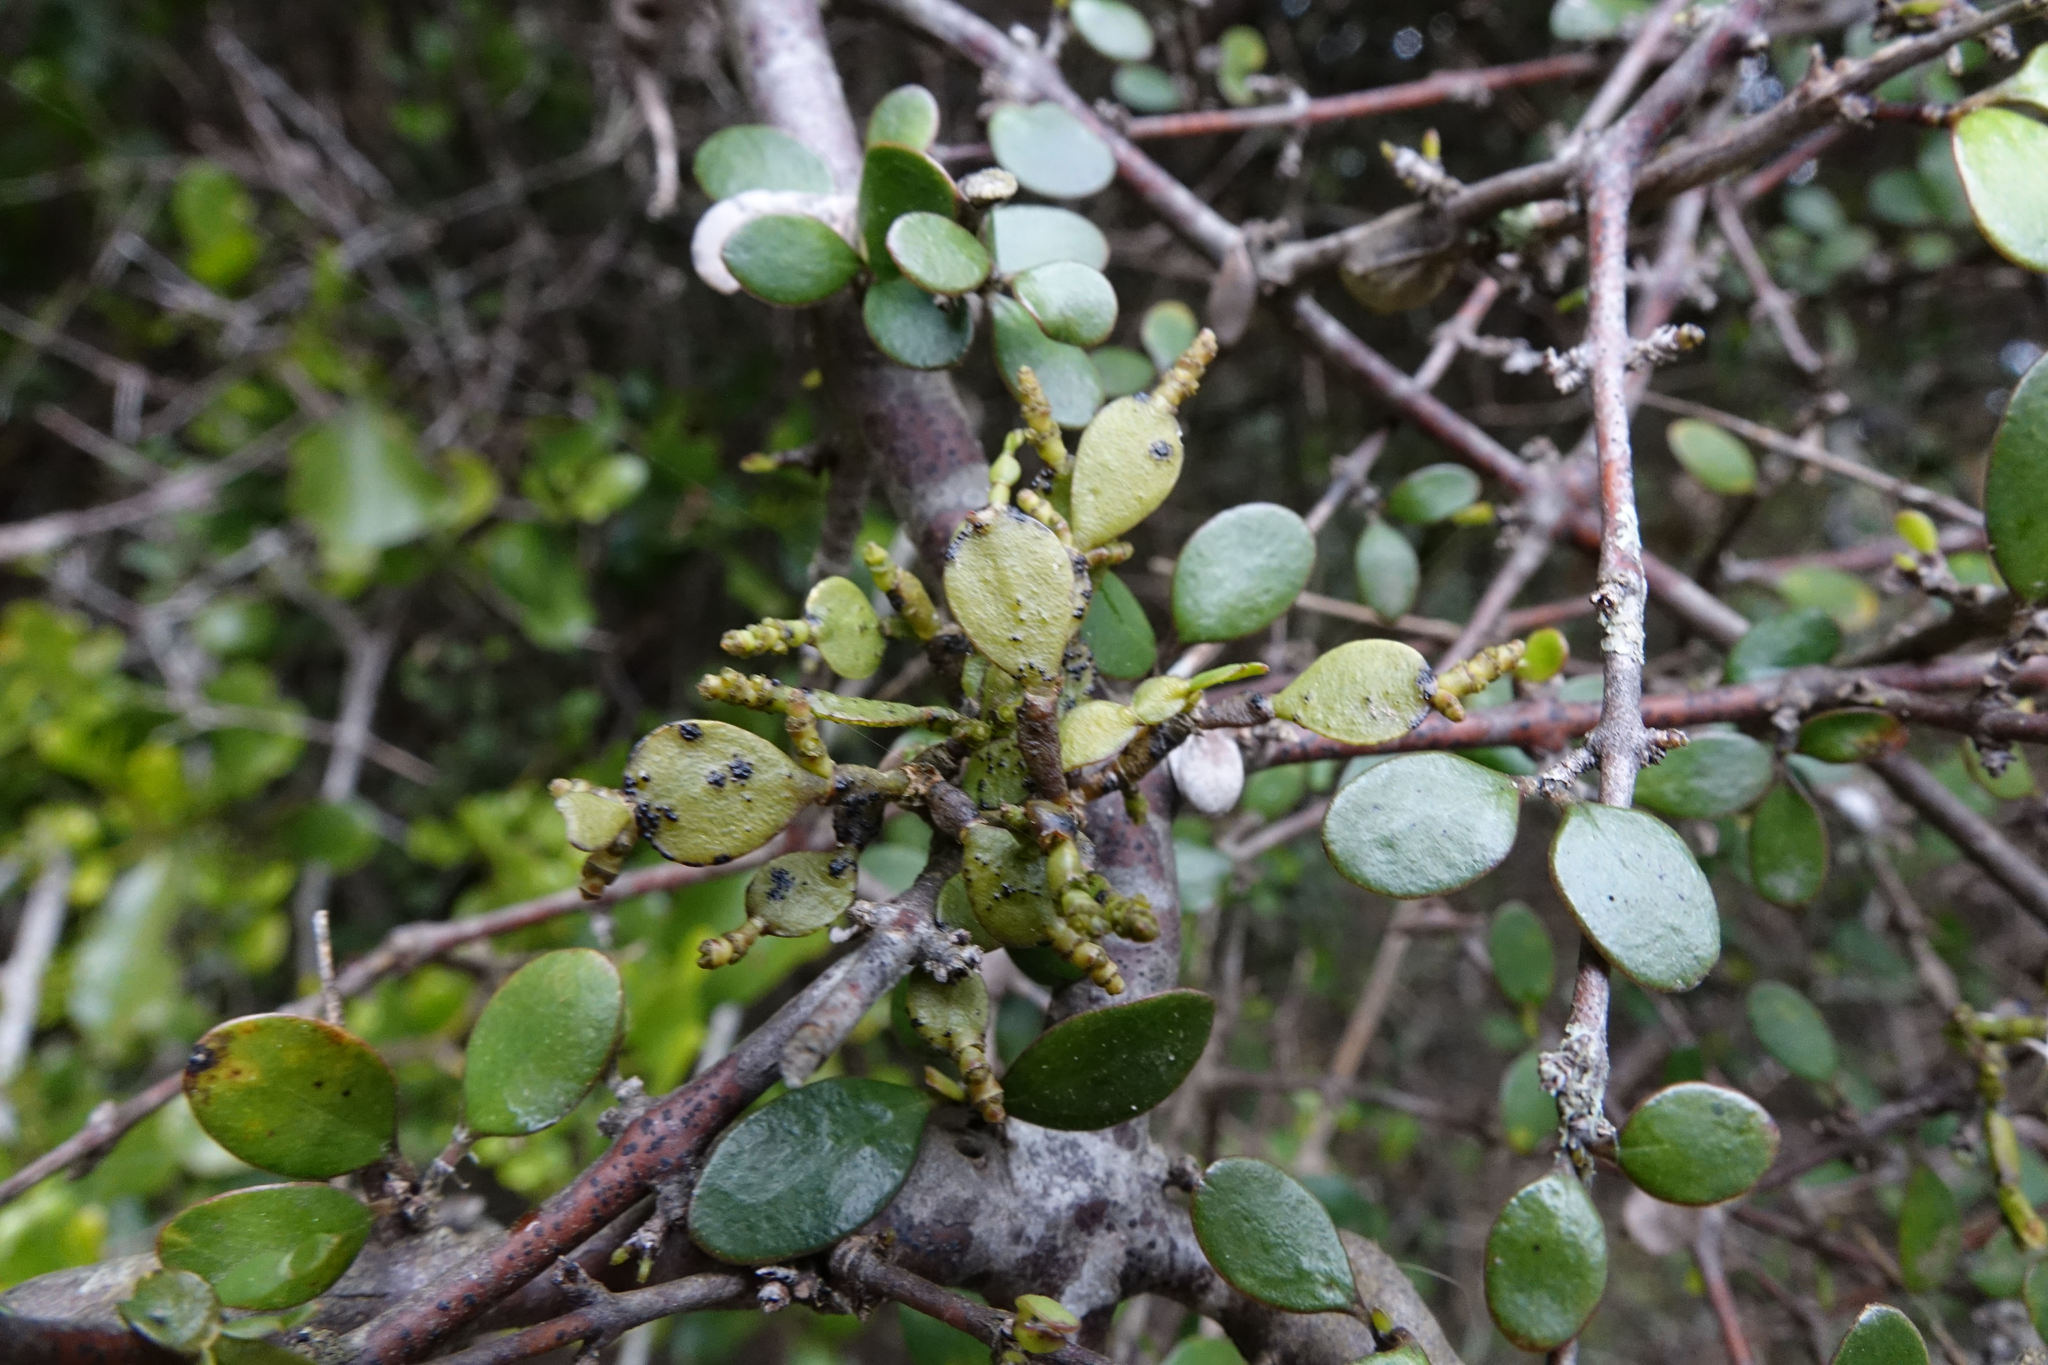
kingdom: Plantae
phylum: Tracheophyta
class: Magnoliopsida
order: Santalales
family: Viscaceae
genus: Korthalsella
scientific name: Korthalsella lindsayi
